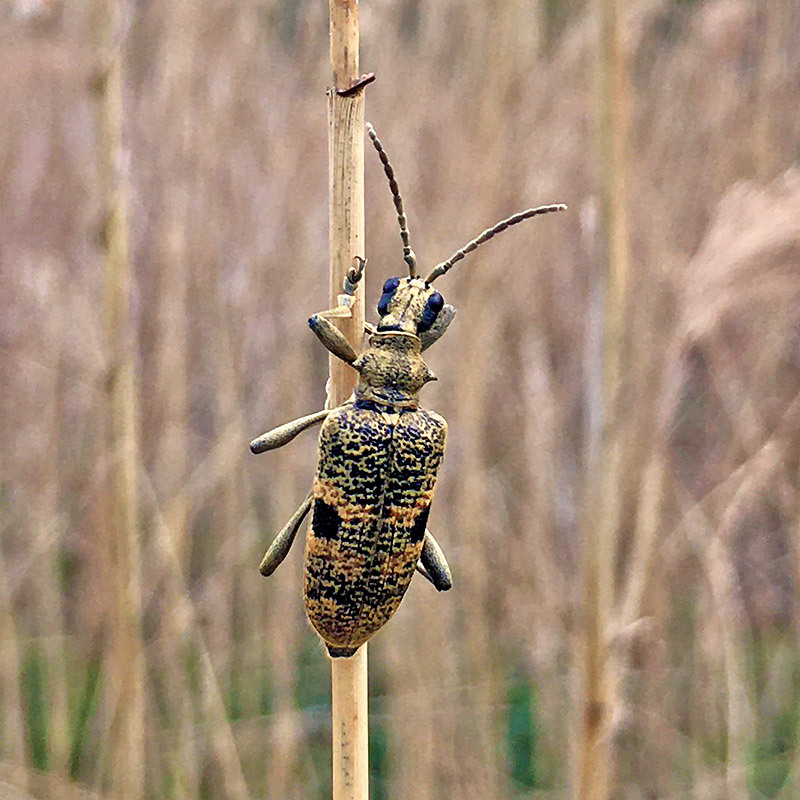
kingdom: Animalia
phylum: Arthropoda
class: Insecta
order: Coleoptera
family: Cerambycidae
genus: Rhagium
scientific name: Rhagium mordax
